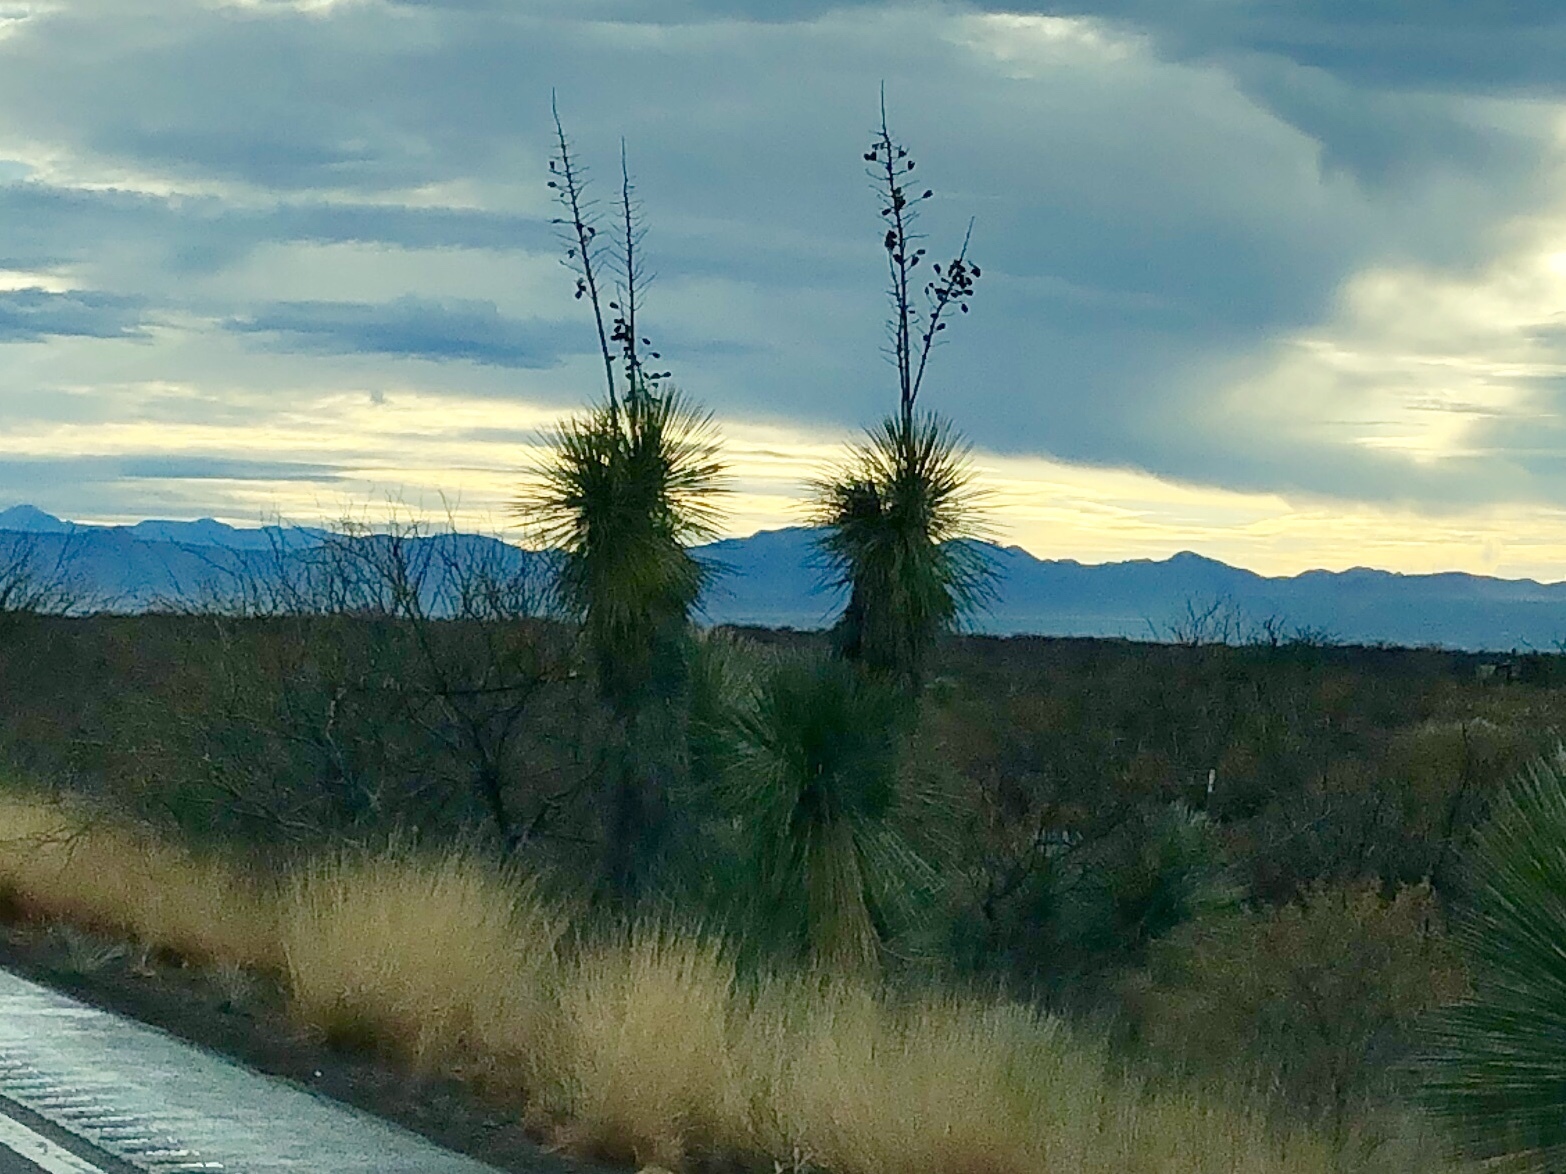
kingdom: Plantae
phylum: Tracheophyta
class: Liliopsida
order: Asparagales
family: Asparagaceae
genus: Yucca
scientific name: Yucca elata
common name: Palmella
